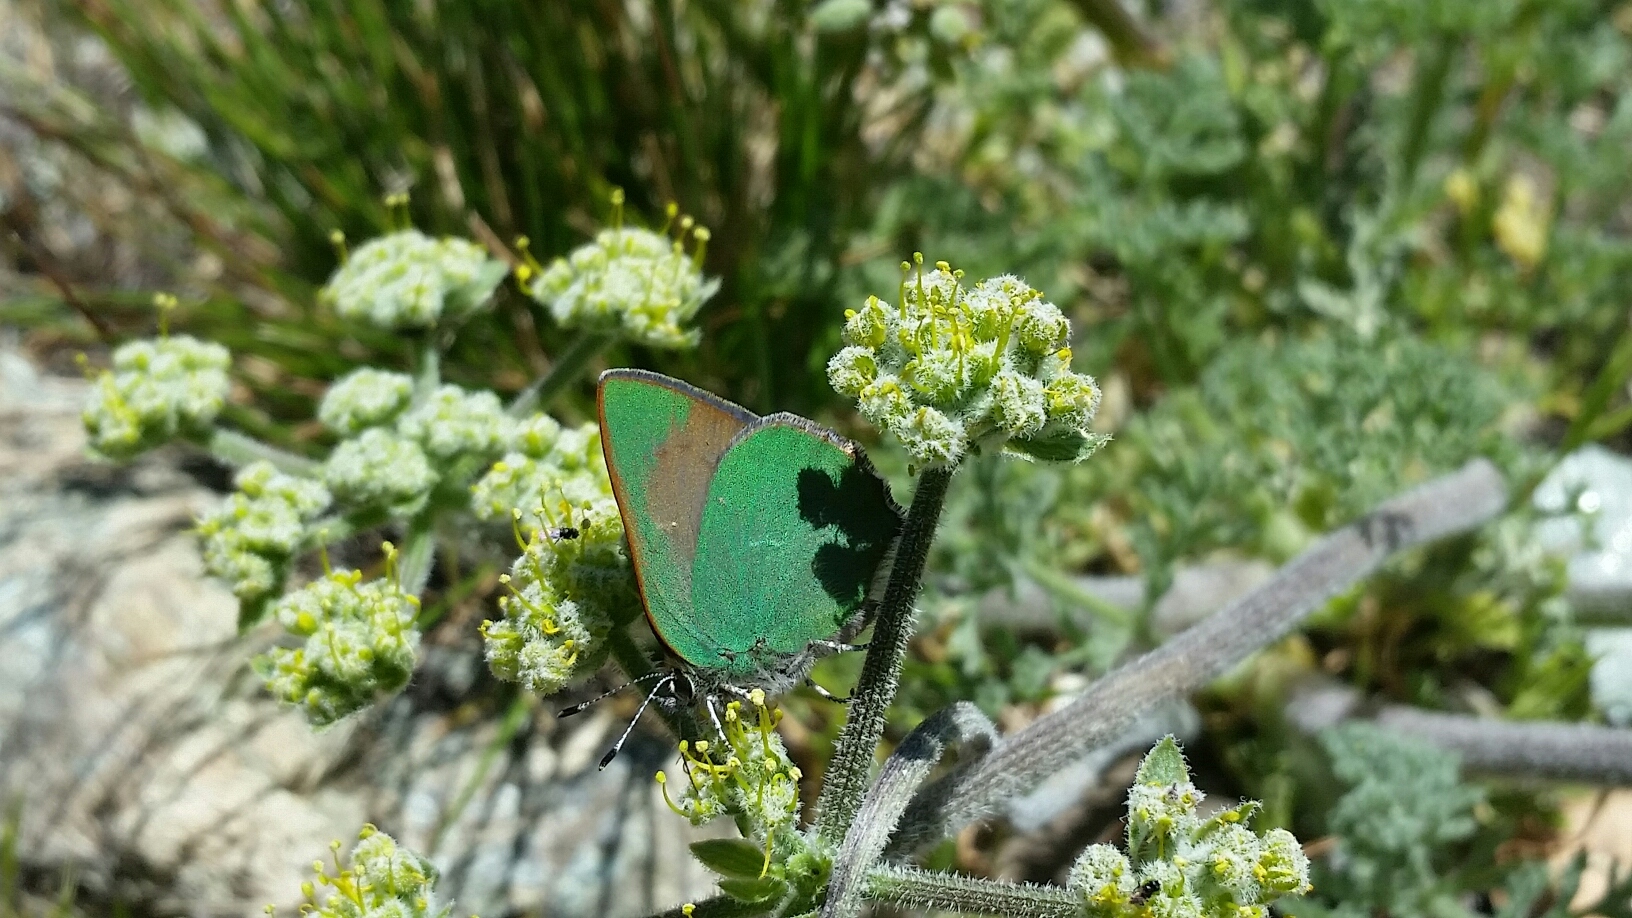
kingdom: Animalia
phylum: Arthropoda
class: Insecta
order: Lepidoptera
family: Lycaenidae
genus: Callophrys
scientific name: Callophrys dumetorum
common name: Bramble hairstreak
